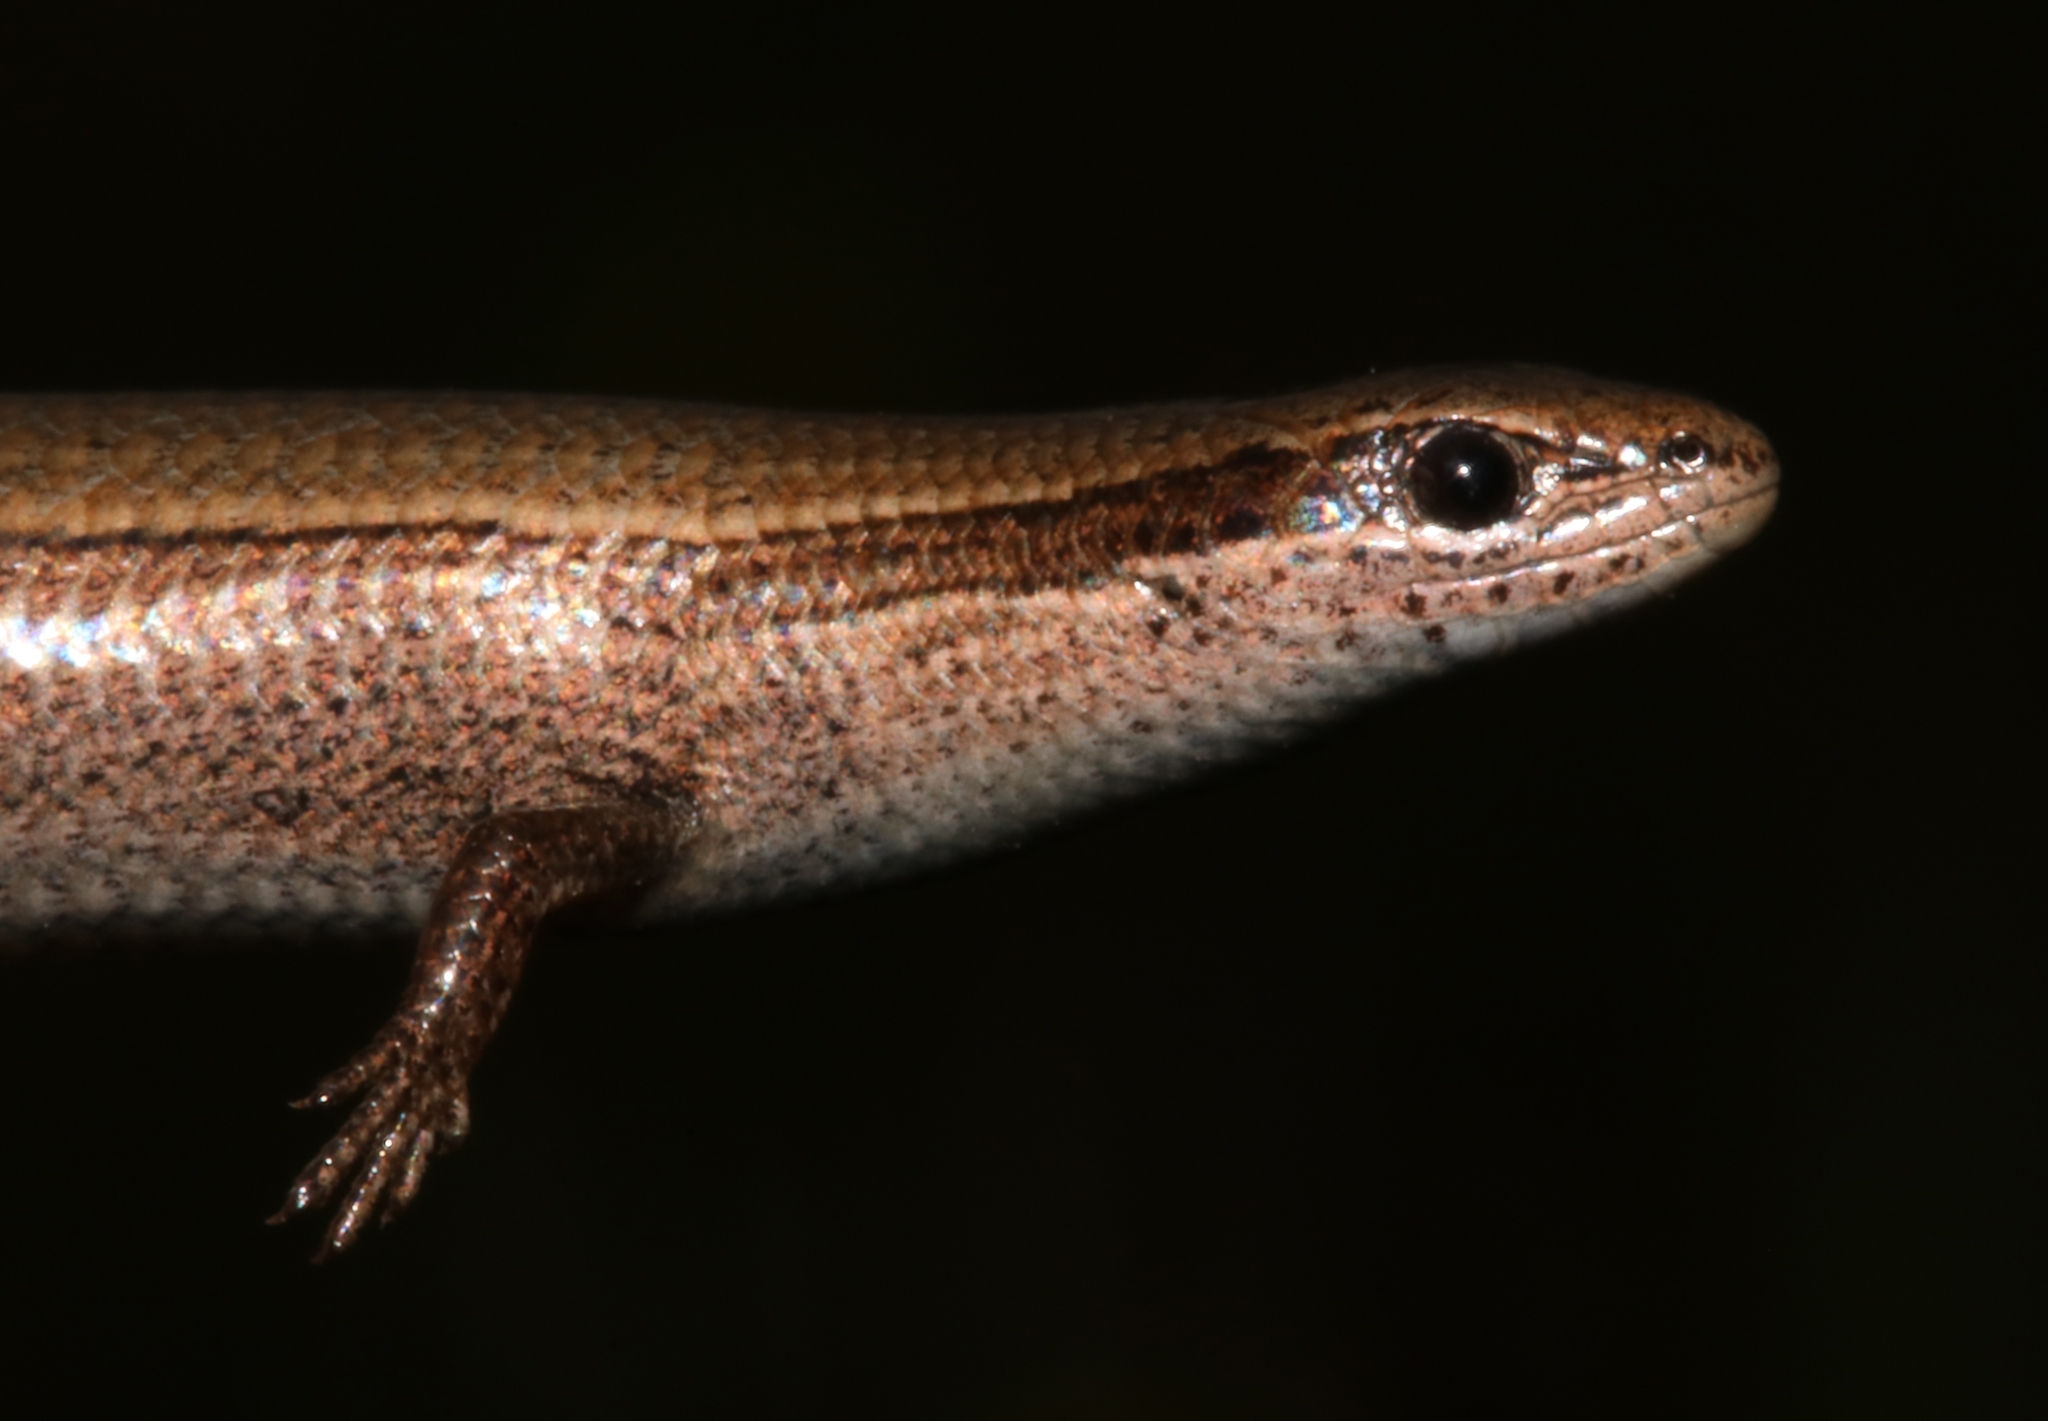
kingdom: Animalia
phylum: Chordata
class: Squamata
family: Scincidae
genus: Ablepharus
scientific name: Ablepharus kitaibelii
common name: Juniper skink
